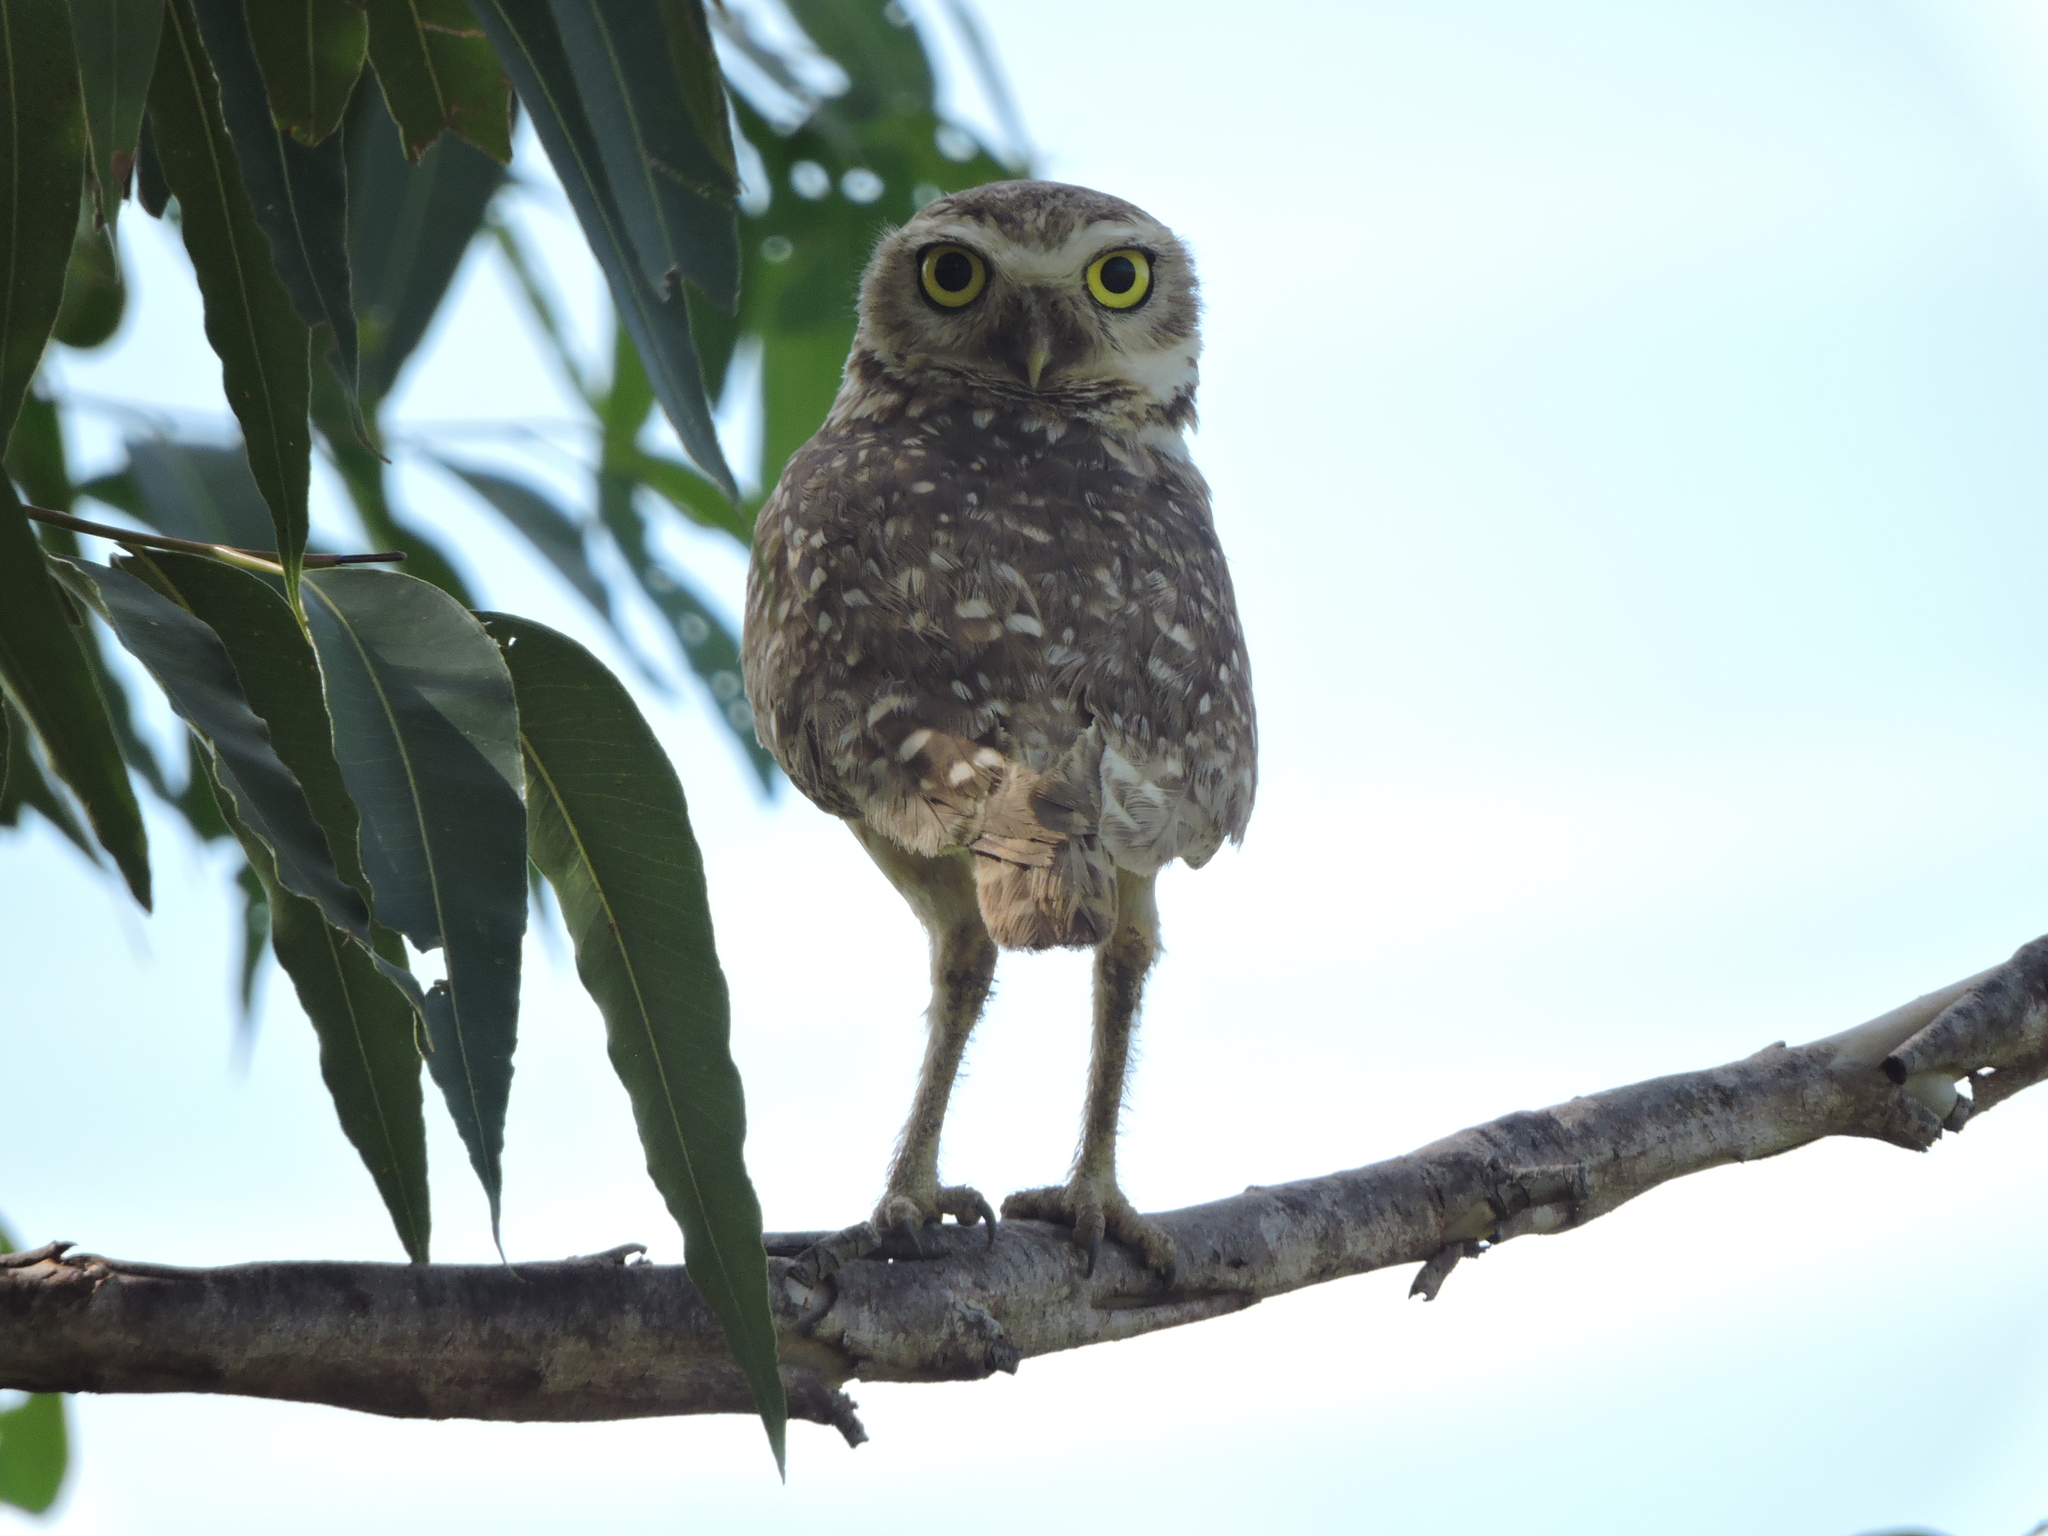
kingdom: Animalia
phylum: Chordata
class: Aves
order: Strigiformes
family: Strigidae
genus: Athene
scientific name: Athene cunicularia
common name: Burrowing owl
